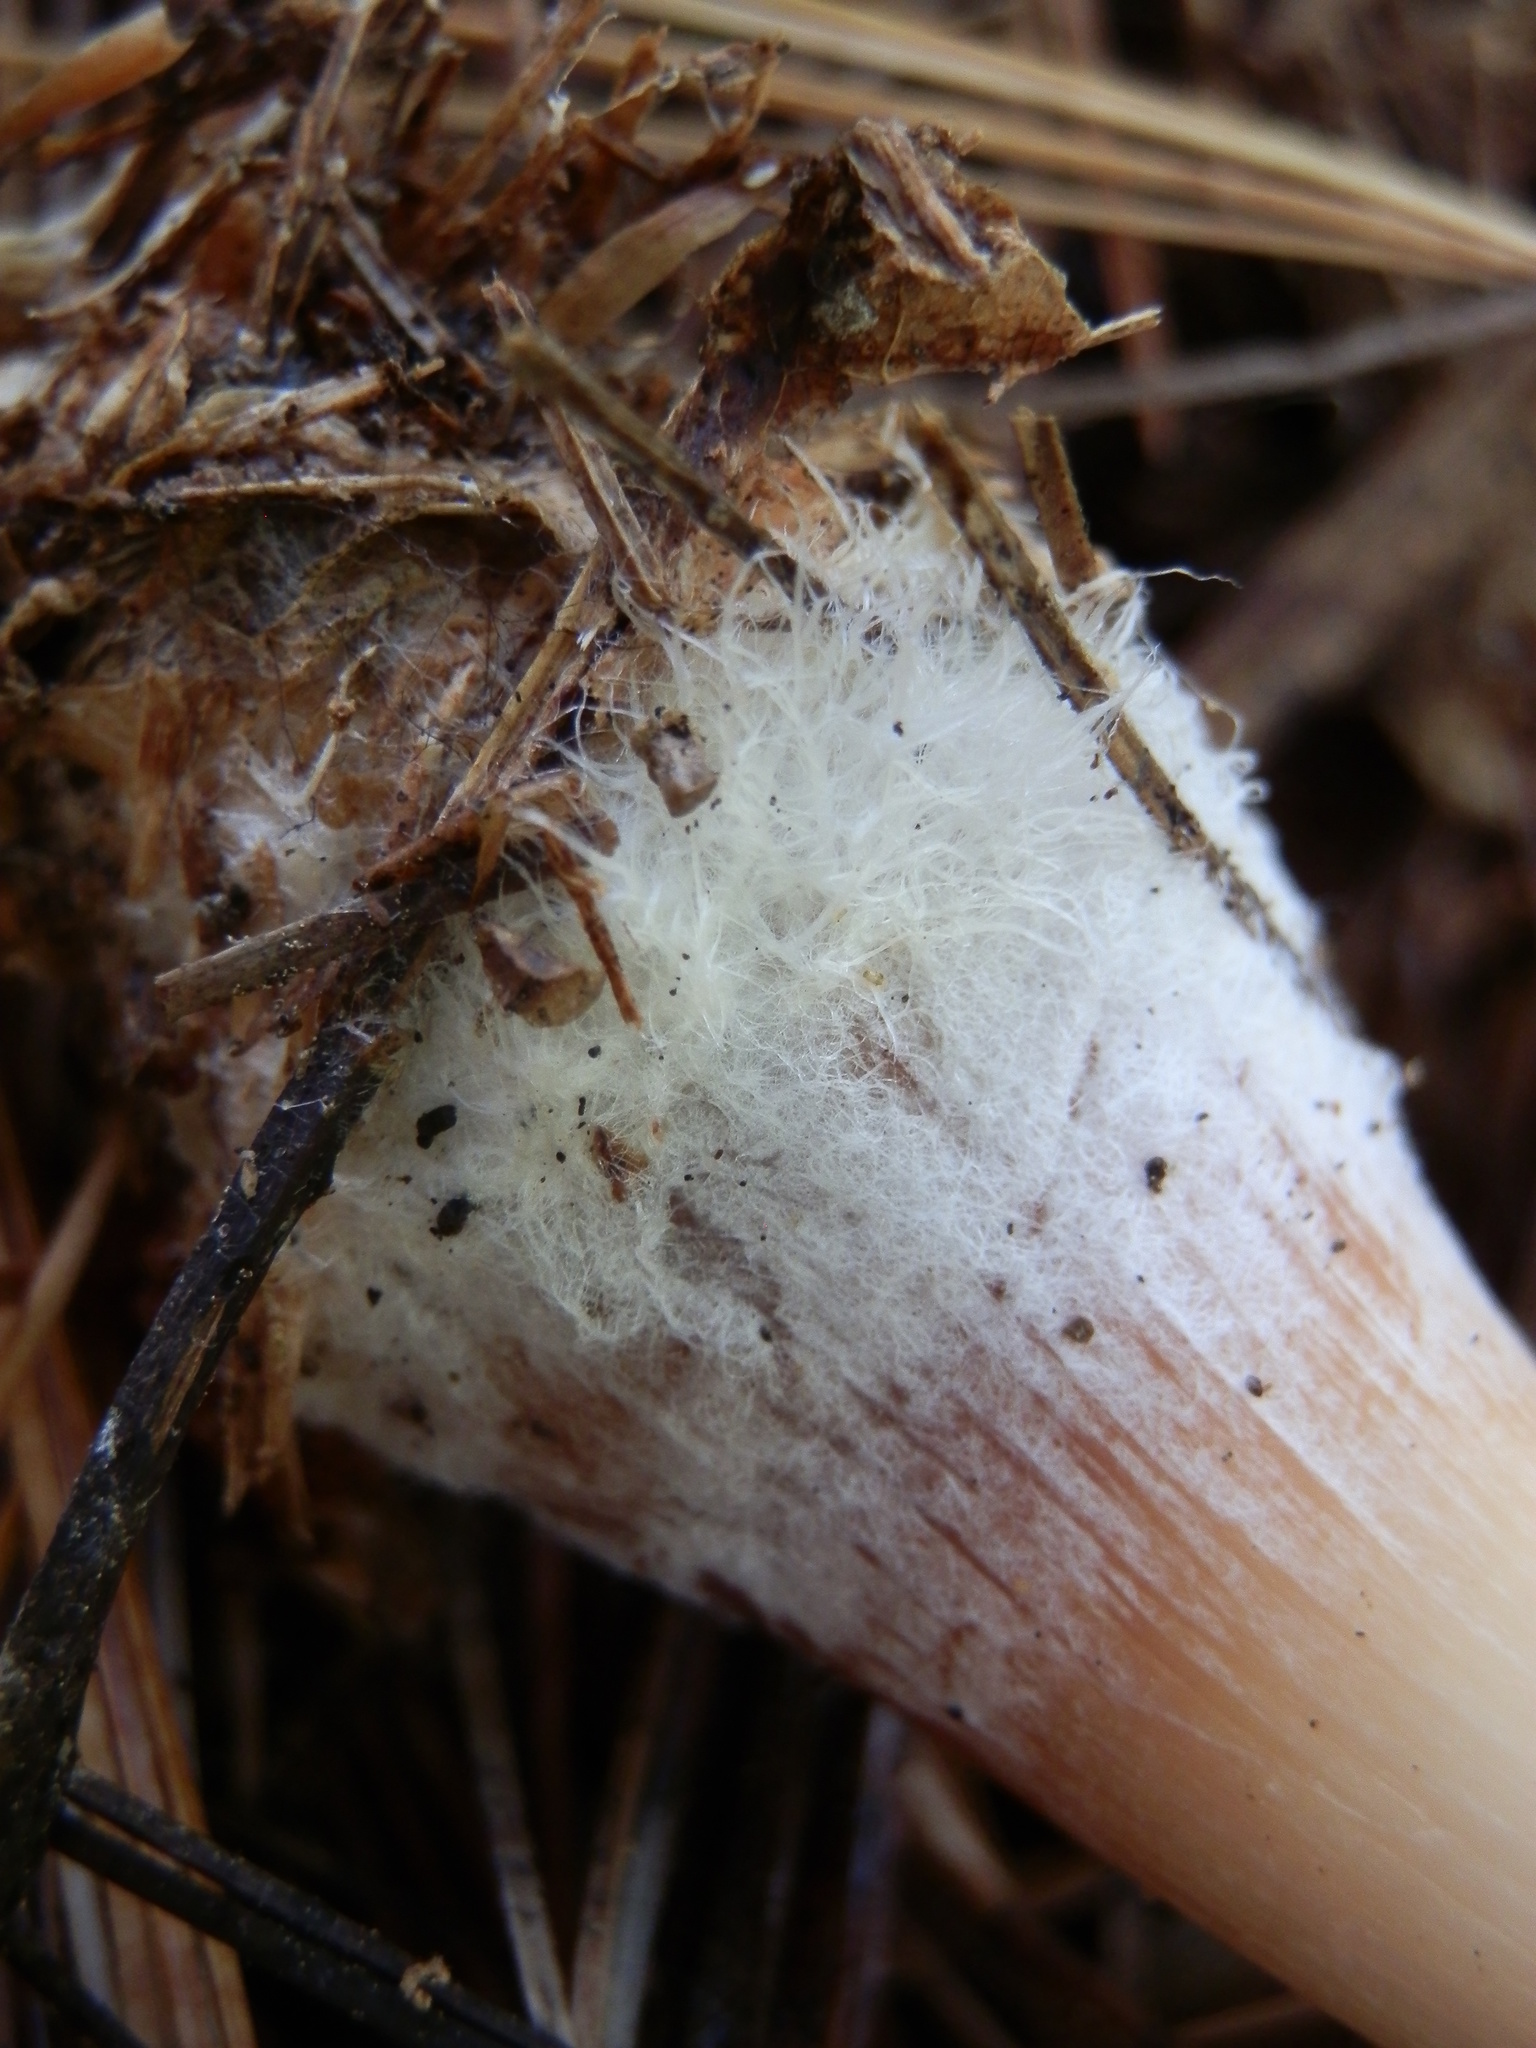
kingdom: Fungi
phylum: Basidiomycota
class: Agaricomycetes
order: Agaricales
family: Omphalotaceae
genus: Rhodocollybia
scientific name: Rhodocollybia butyracea
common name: Butter cap
